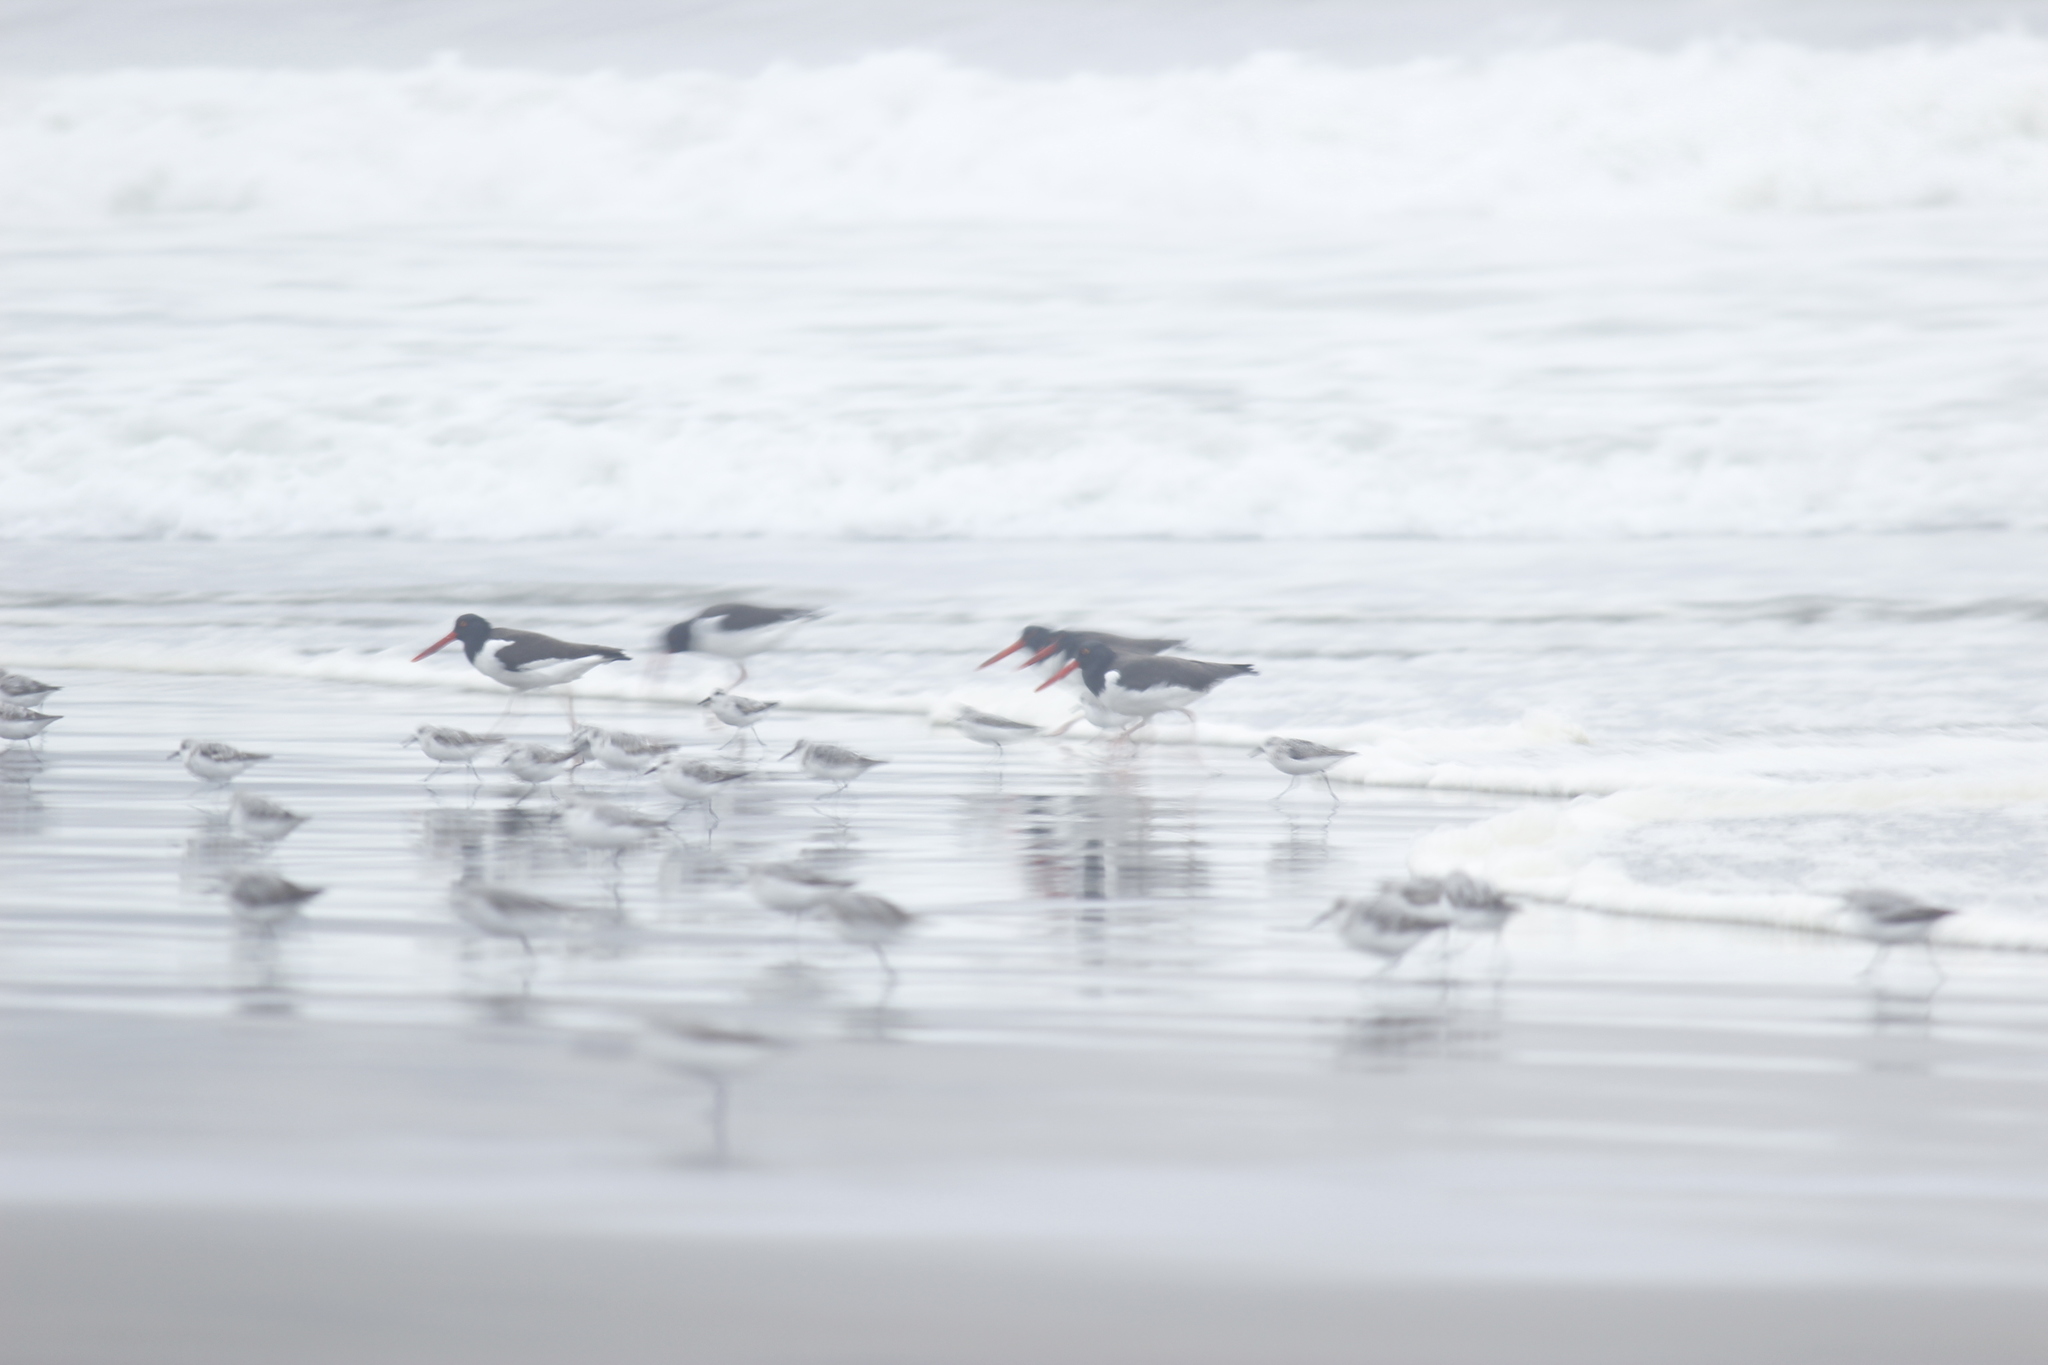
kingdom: Animalia
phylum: Chordata
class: Aves
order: Charadriiformes
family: Haematopodidae
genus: Haematopus
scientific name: Haematopus palliatus
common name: American oystercatcher
